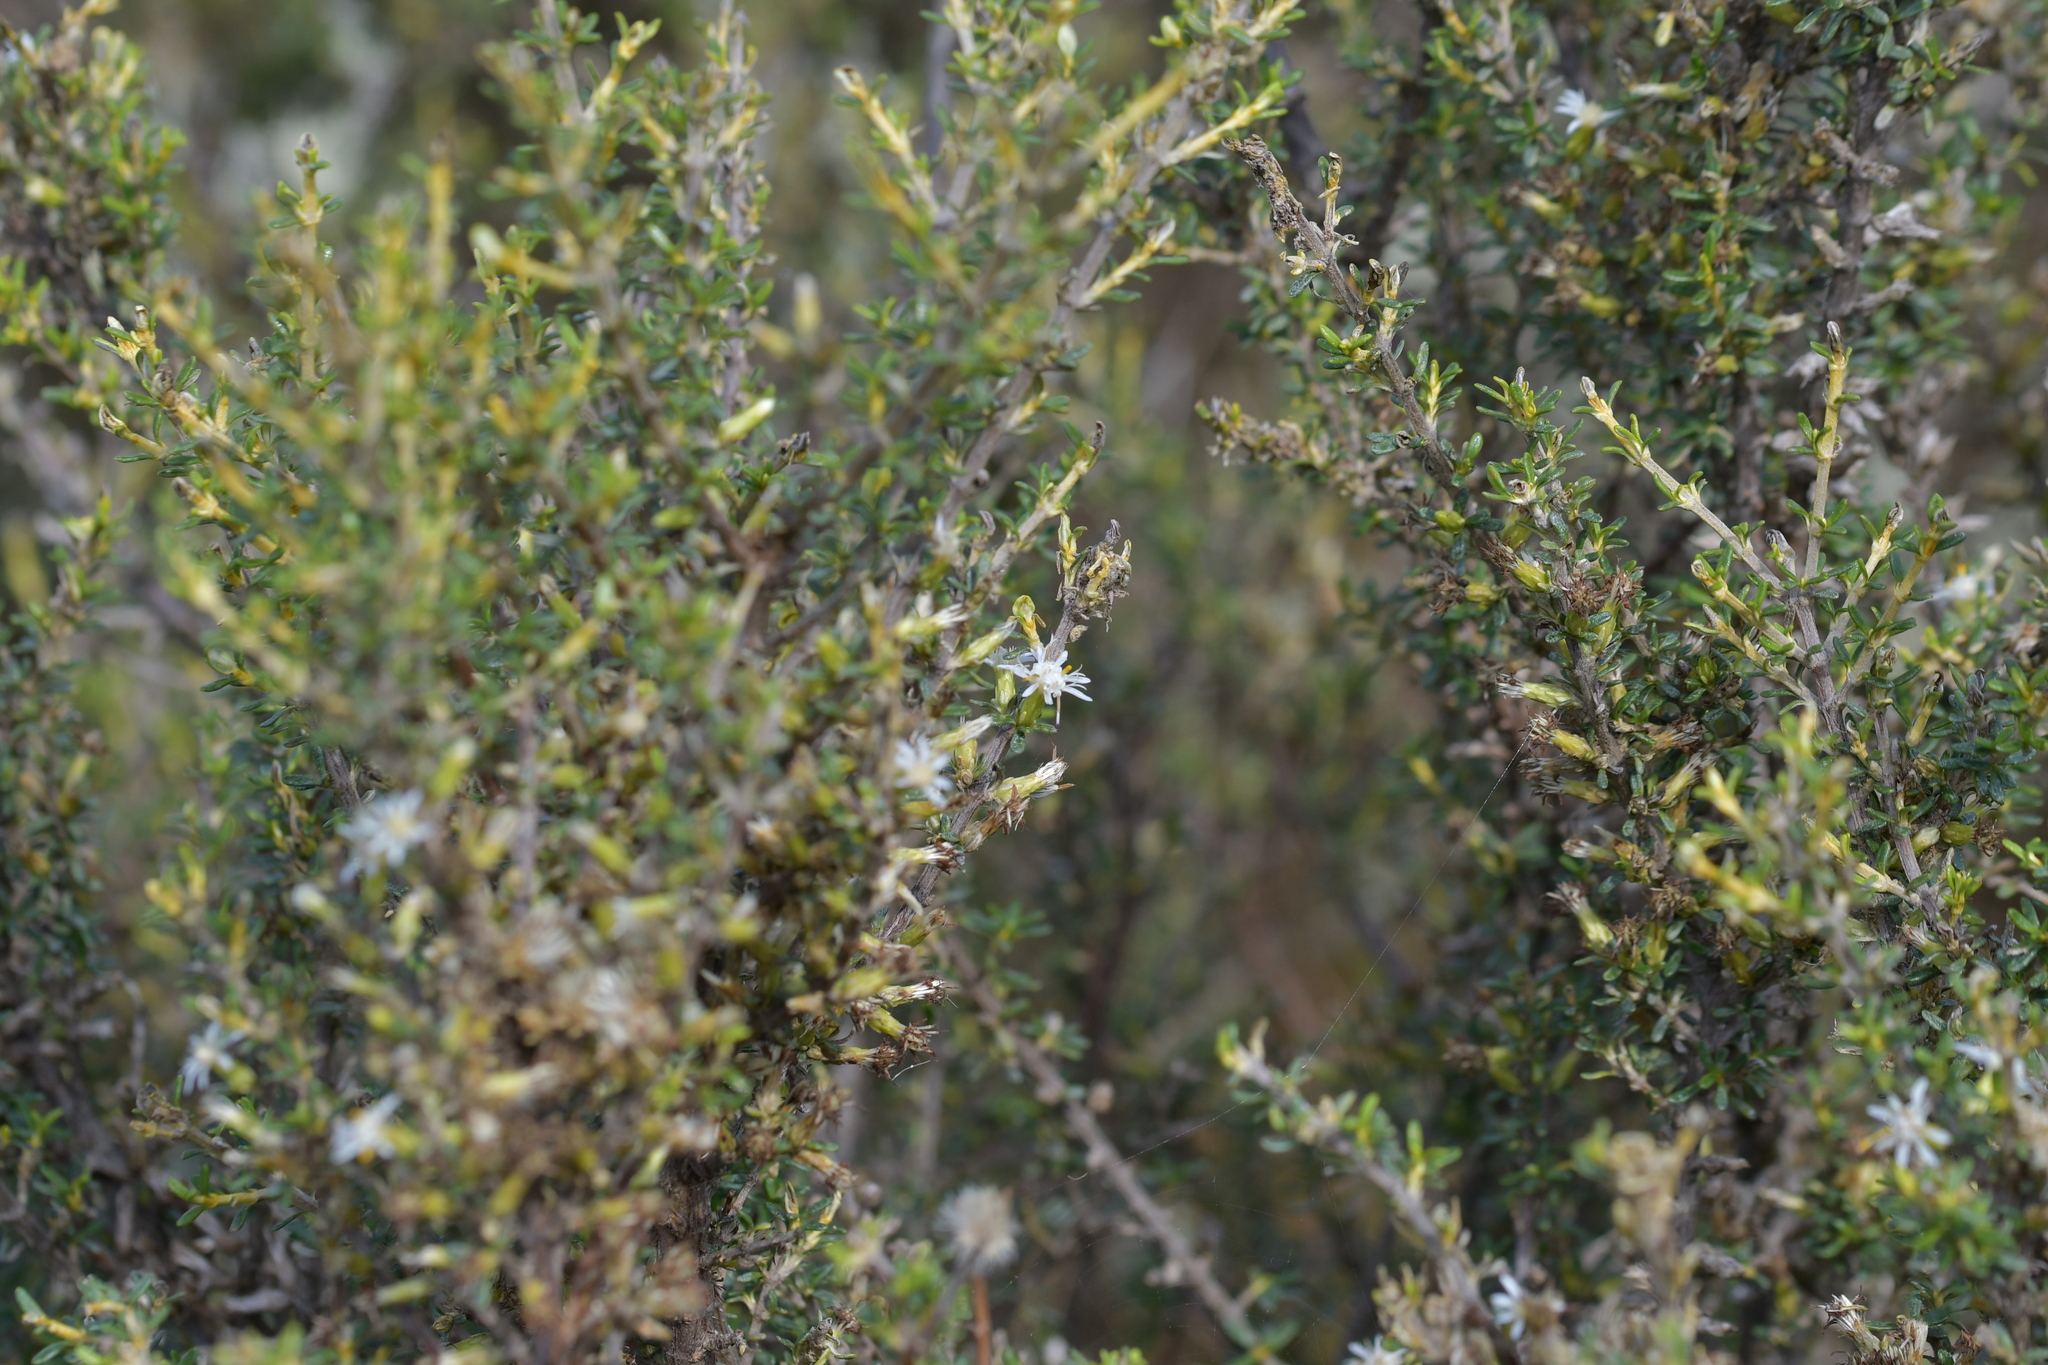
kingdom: Plantae
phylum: Tracheophyta
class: Magnoliopsida
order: Asterales
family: Asteraceae
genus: Olearia
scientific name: Olearia solandri
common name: Coastal daisybush
